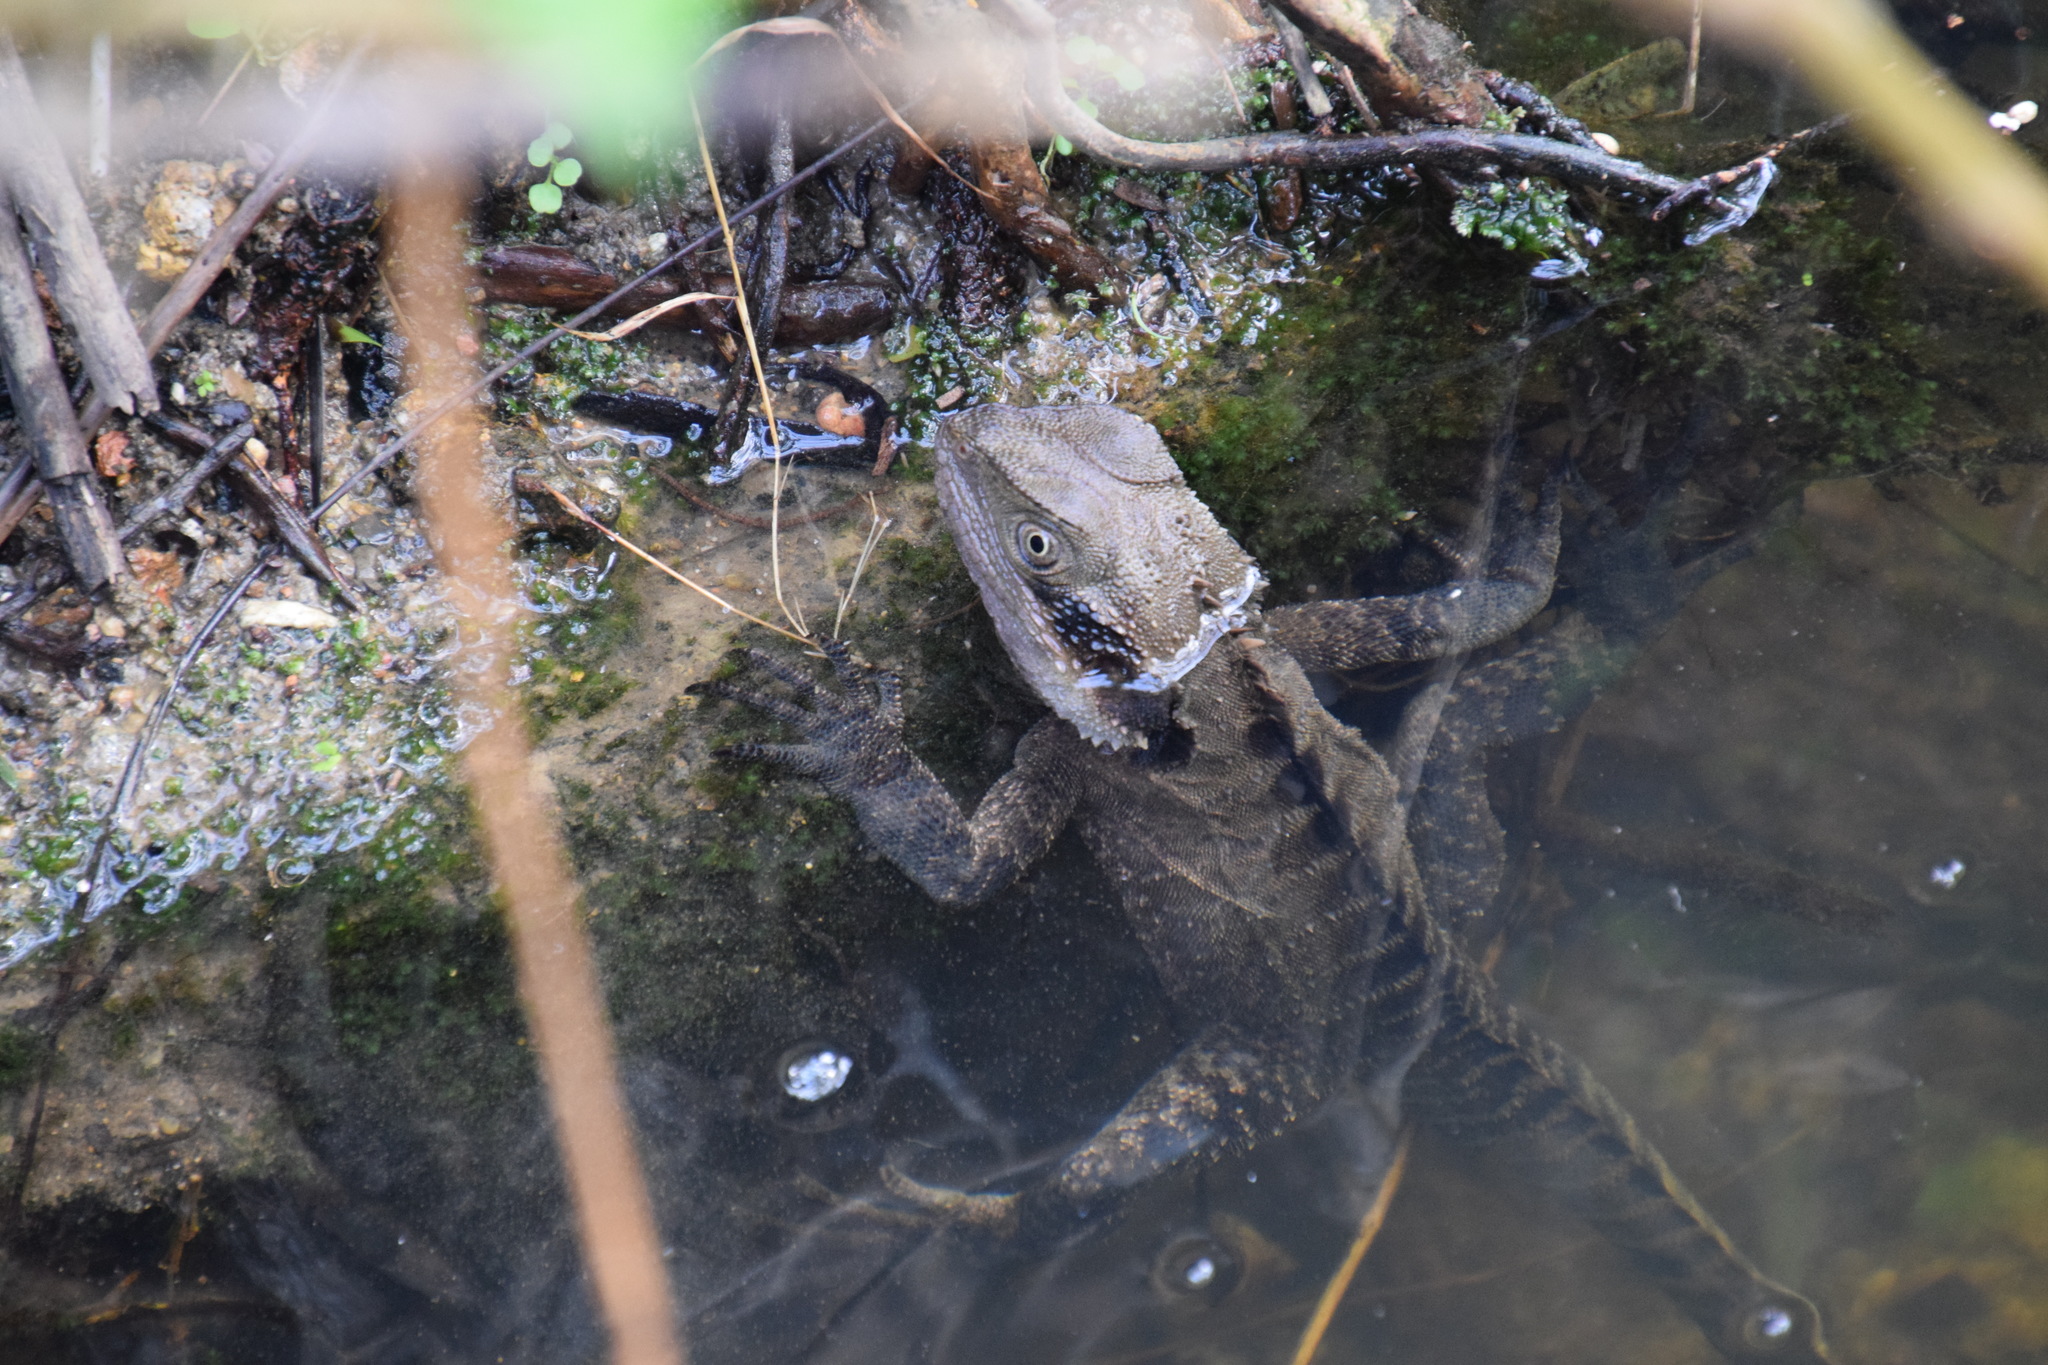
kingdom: Animalia
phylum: Chordata
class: Squamata
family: Agamidae
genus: Intellagama
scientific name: Intellagama lesueurii
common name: Eastern water dragon
